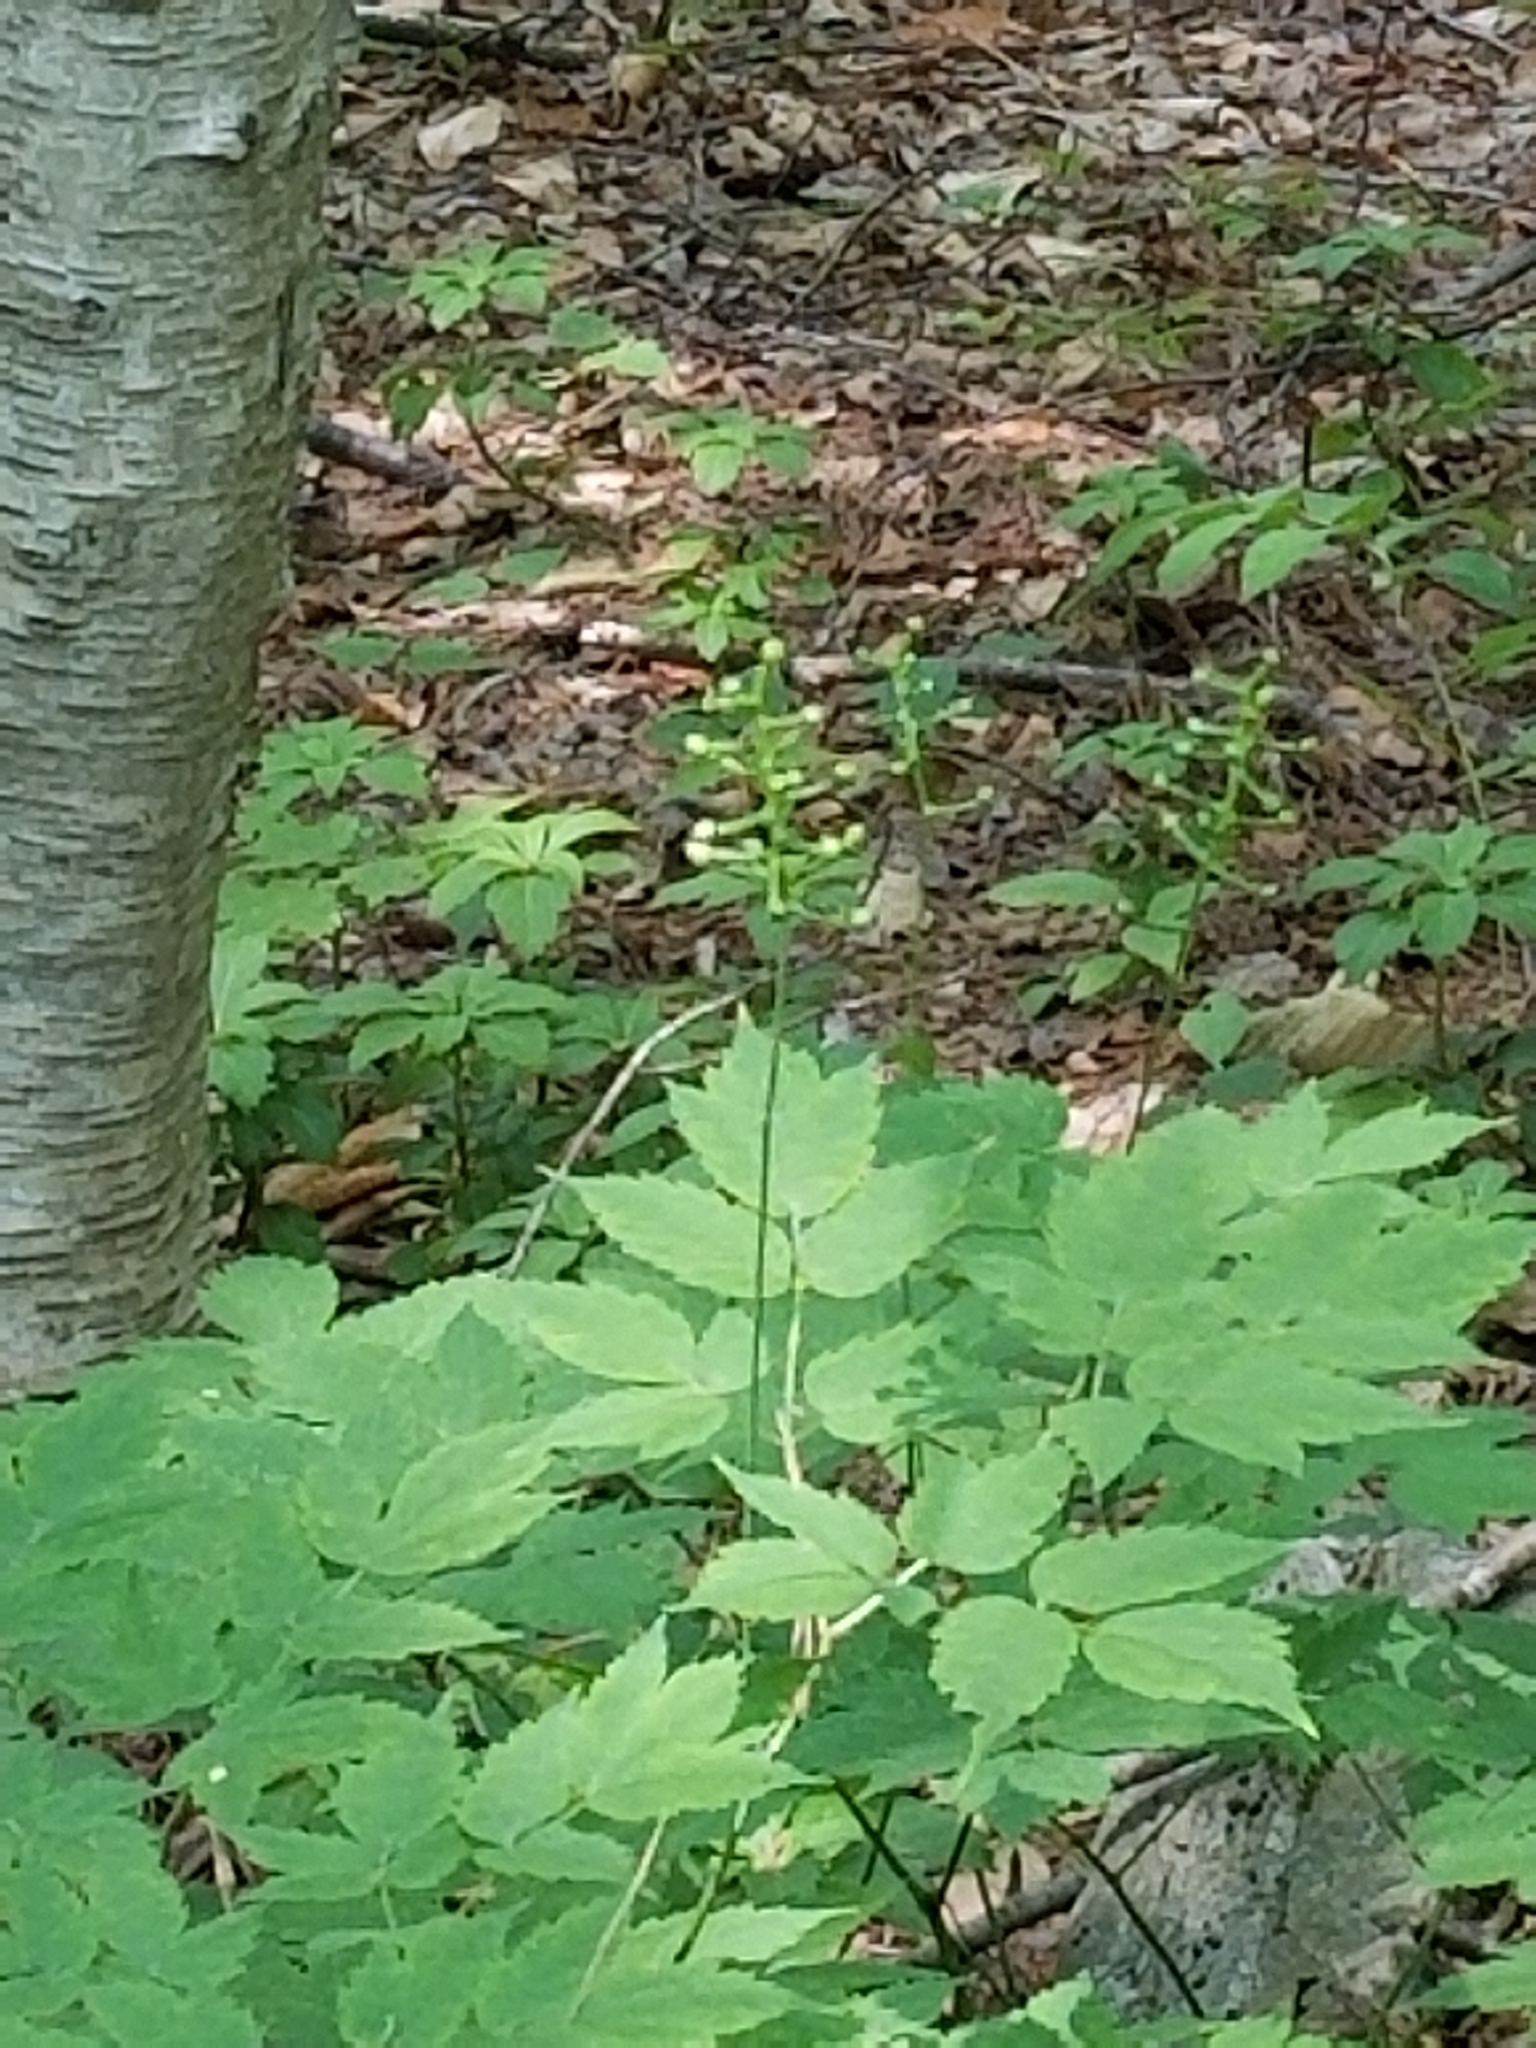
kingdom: Plantae
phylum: Tracheophyta
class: Magnoliopsida
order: Ranunculales
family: Ranunculaceae
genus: Actaea
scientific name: Actaea pachypoda
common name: Doll's-eyes
